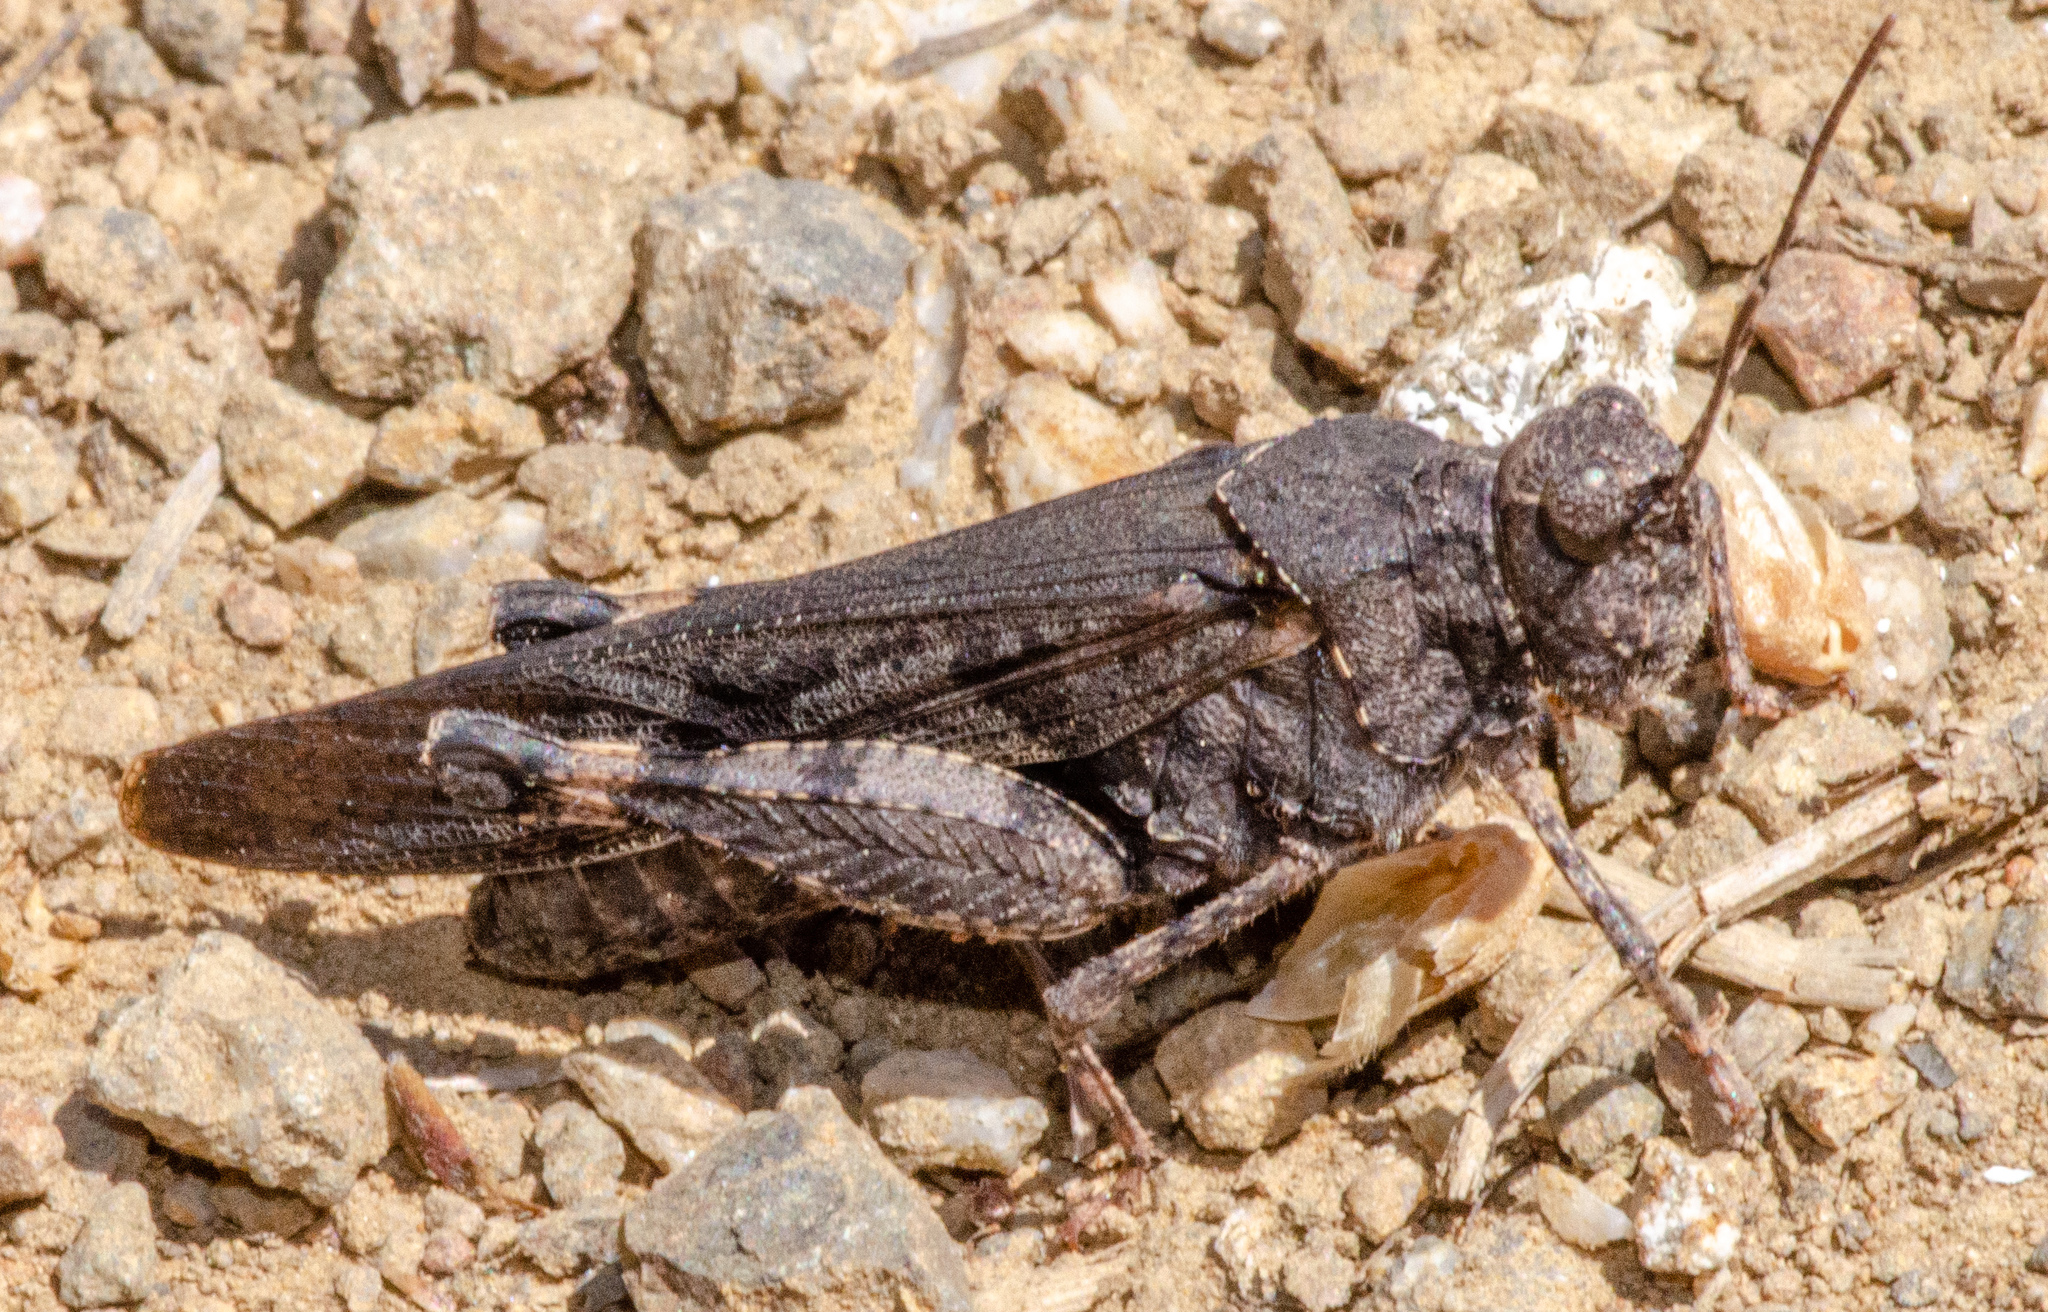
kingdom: Animalia
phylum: Arthropoda
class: Insecta
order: Orthoptera
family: Acrididae
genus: Trimerotropis
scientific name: Trimerotropis fontana
